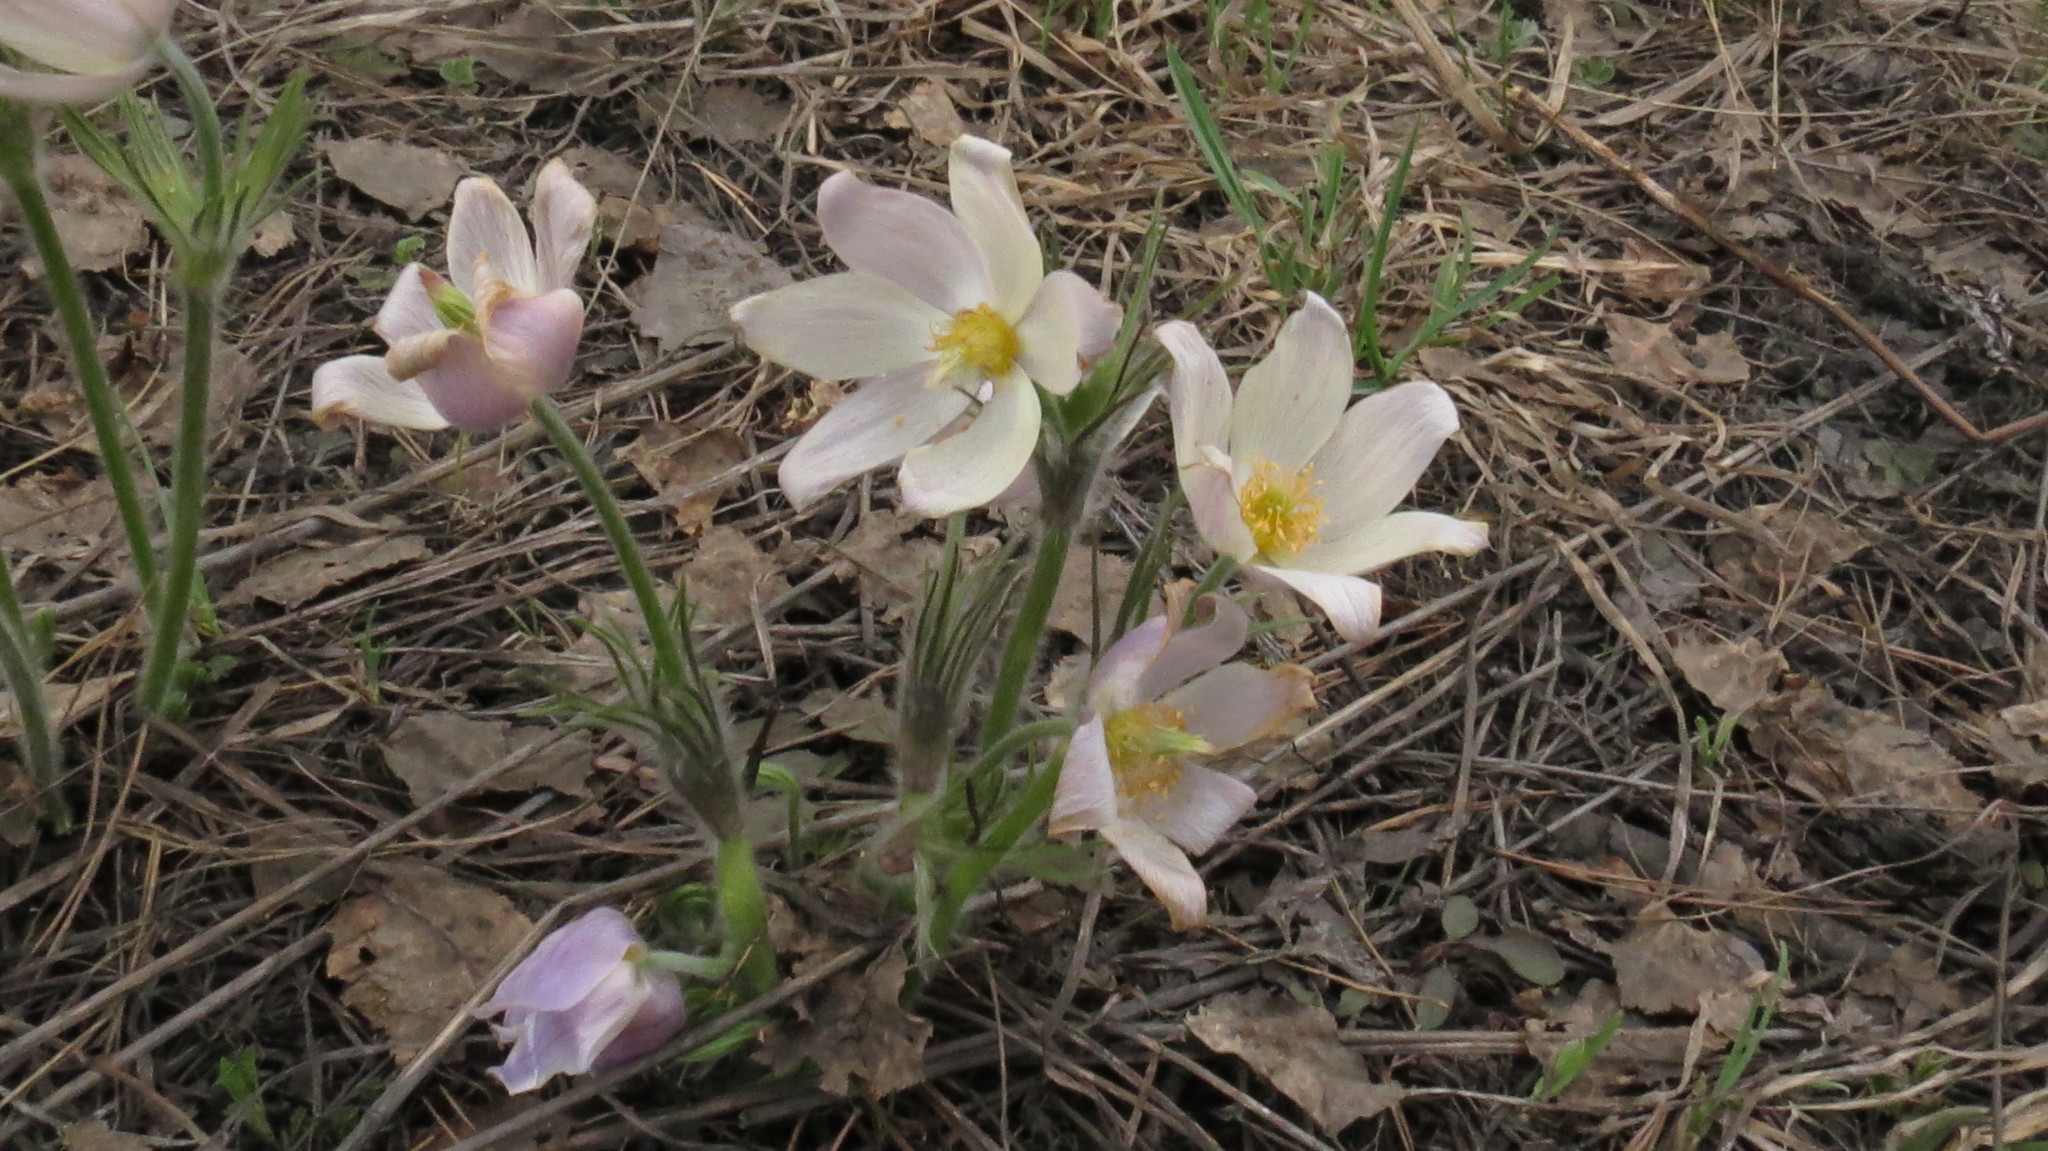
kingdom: Plantae
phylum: Tracheophyta
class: Magnoliopsida
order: Ranunculales
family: Ranunculaceae
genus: Pulsatilla
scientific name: Pulsatilla patens
